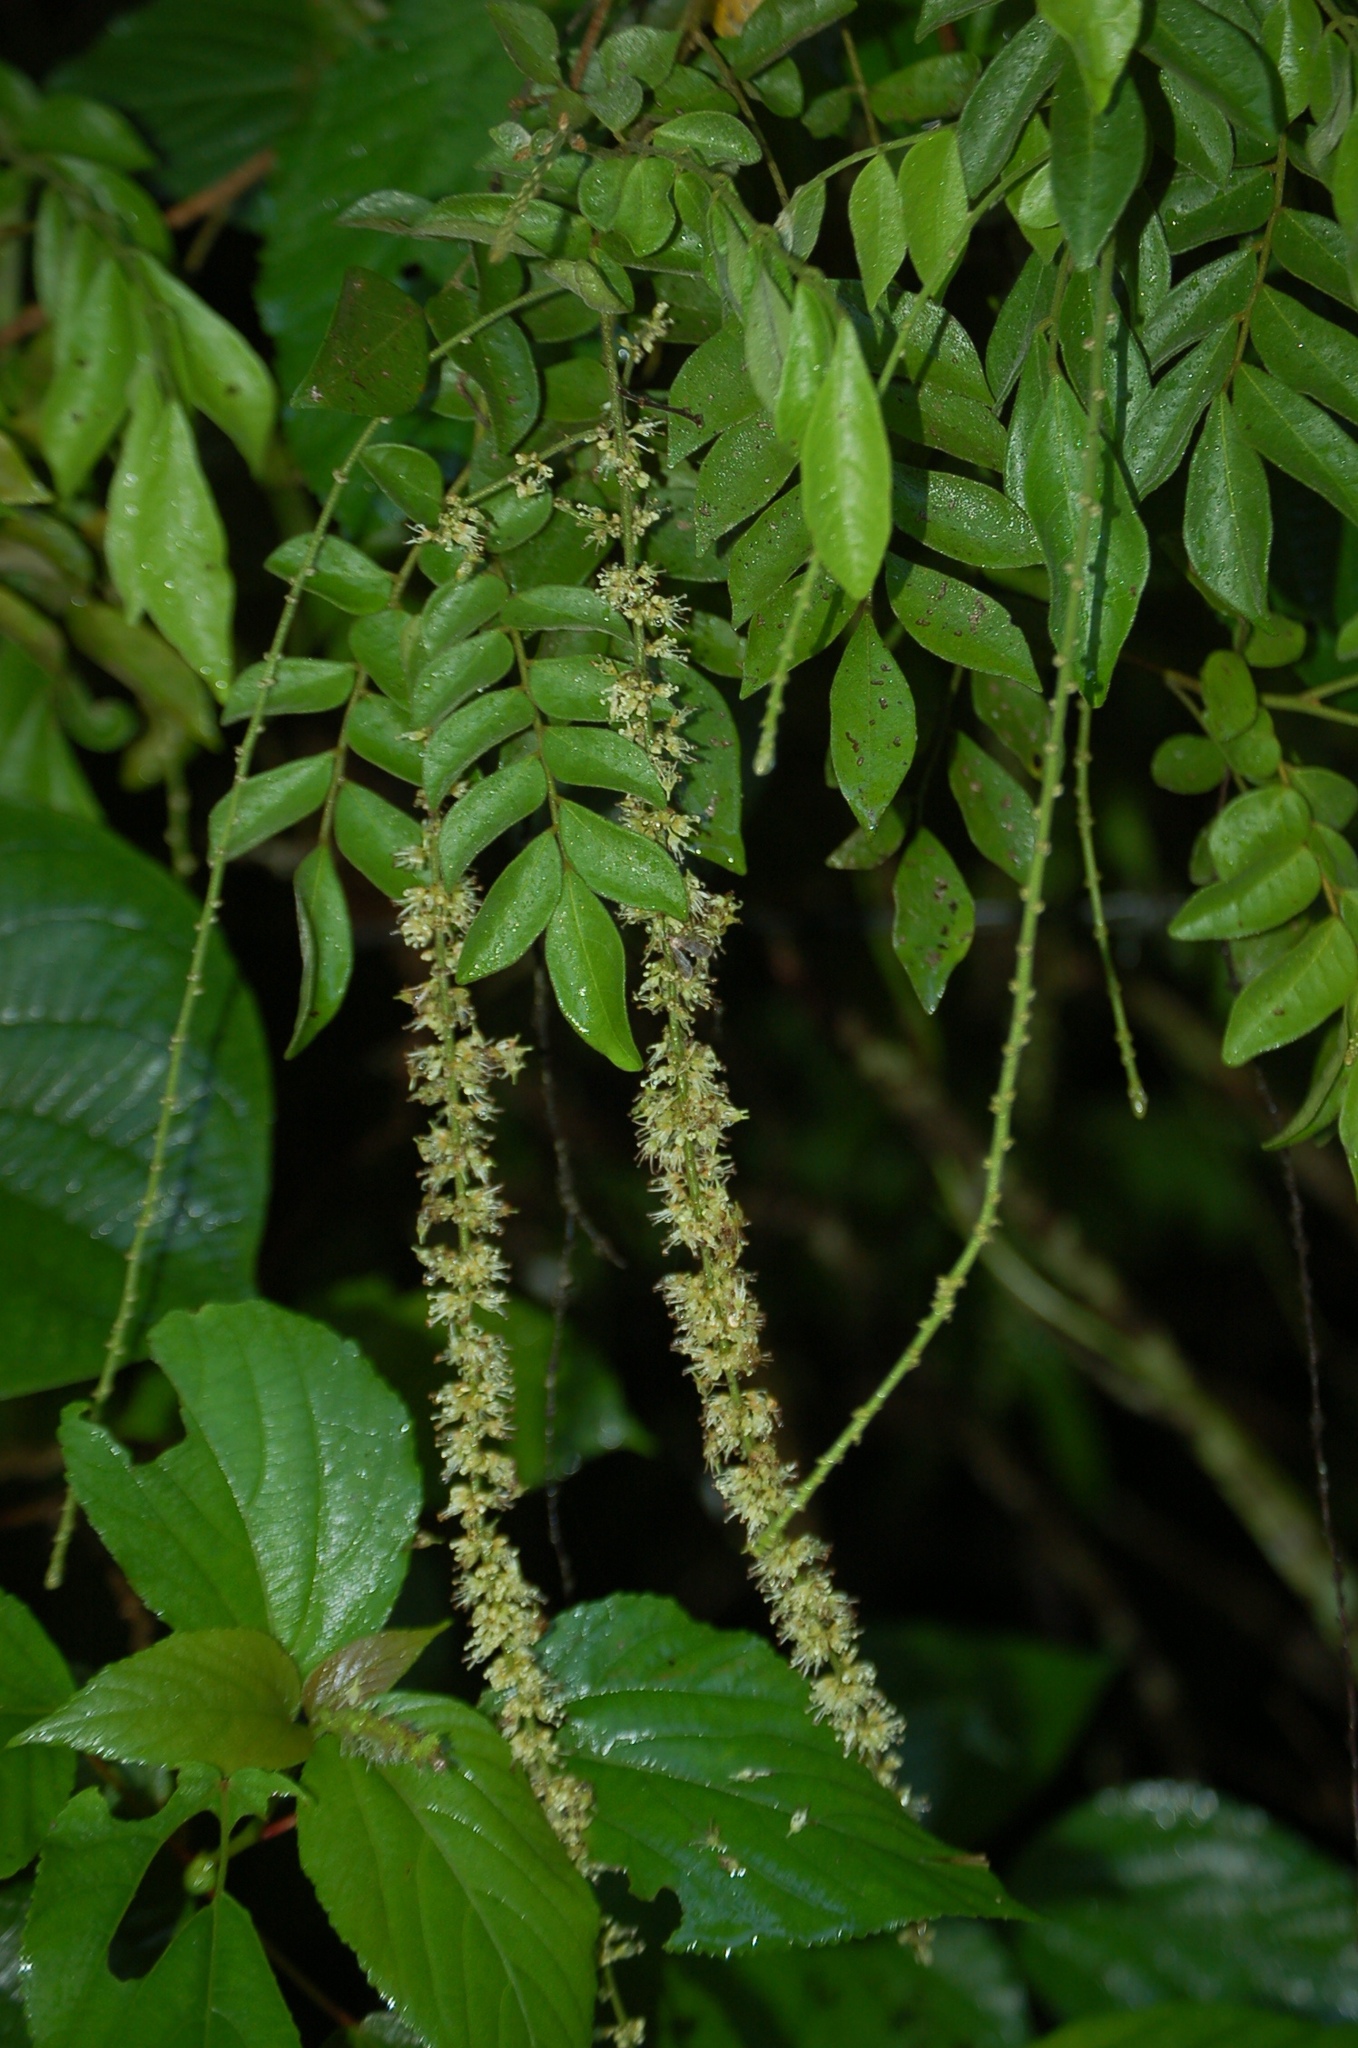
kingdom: Plantae
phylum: Tracheophyta
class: Magnoliopsida
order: Picramniales
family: Picramniaceae
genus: Picramnia
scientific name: Picramnia antidesma
